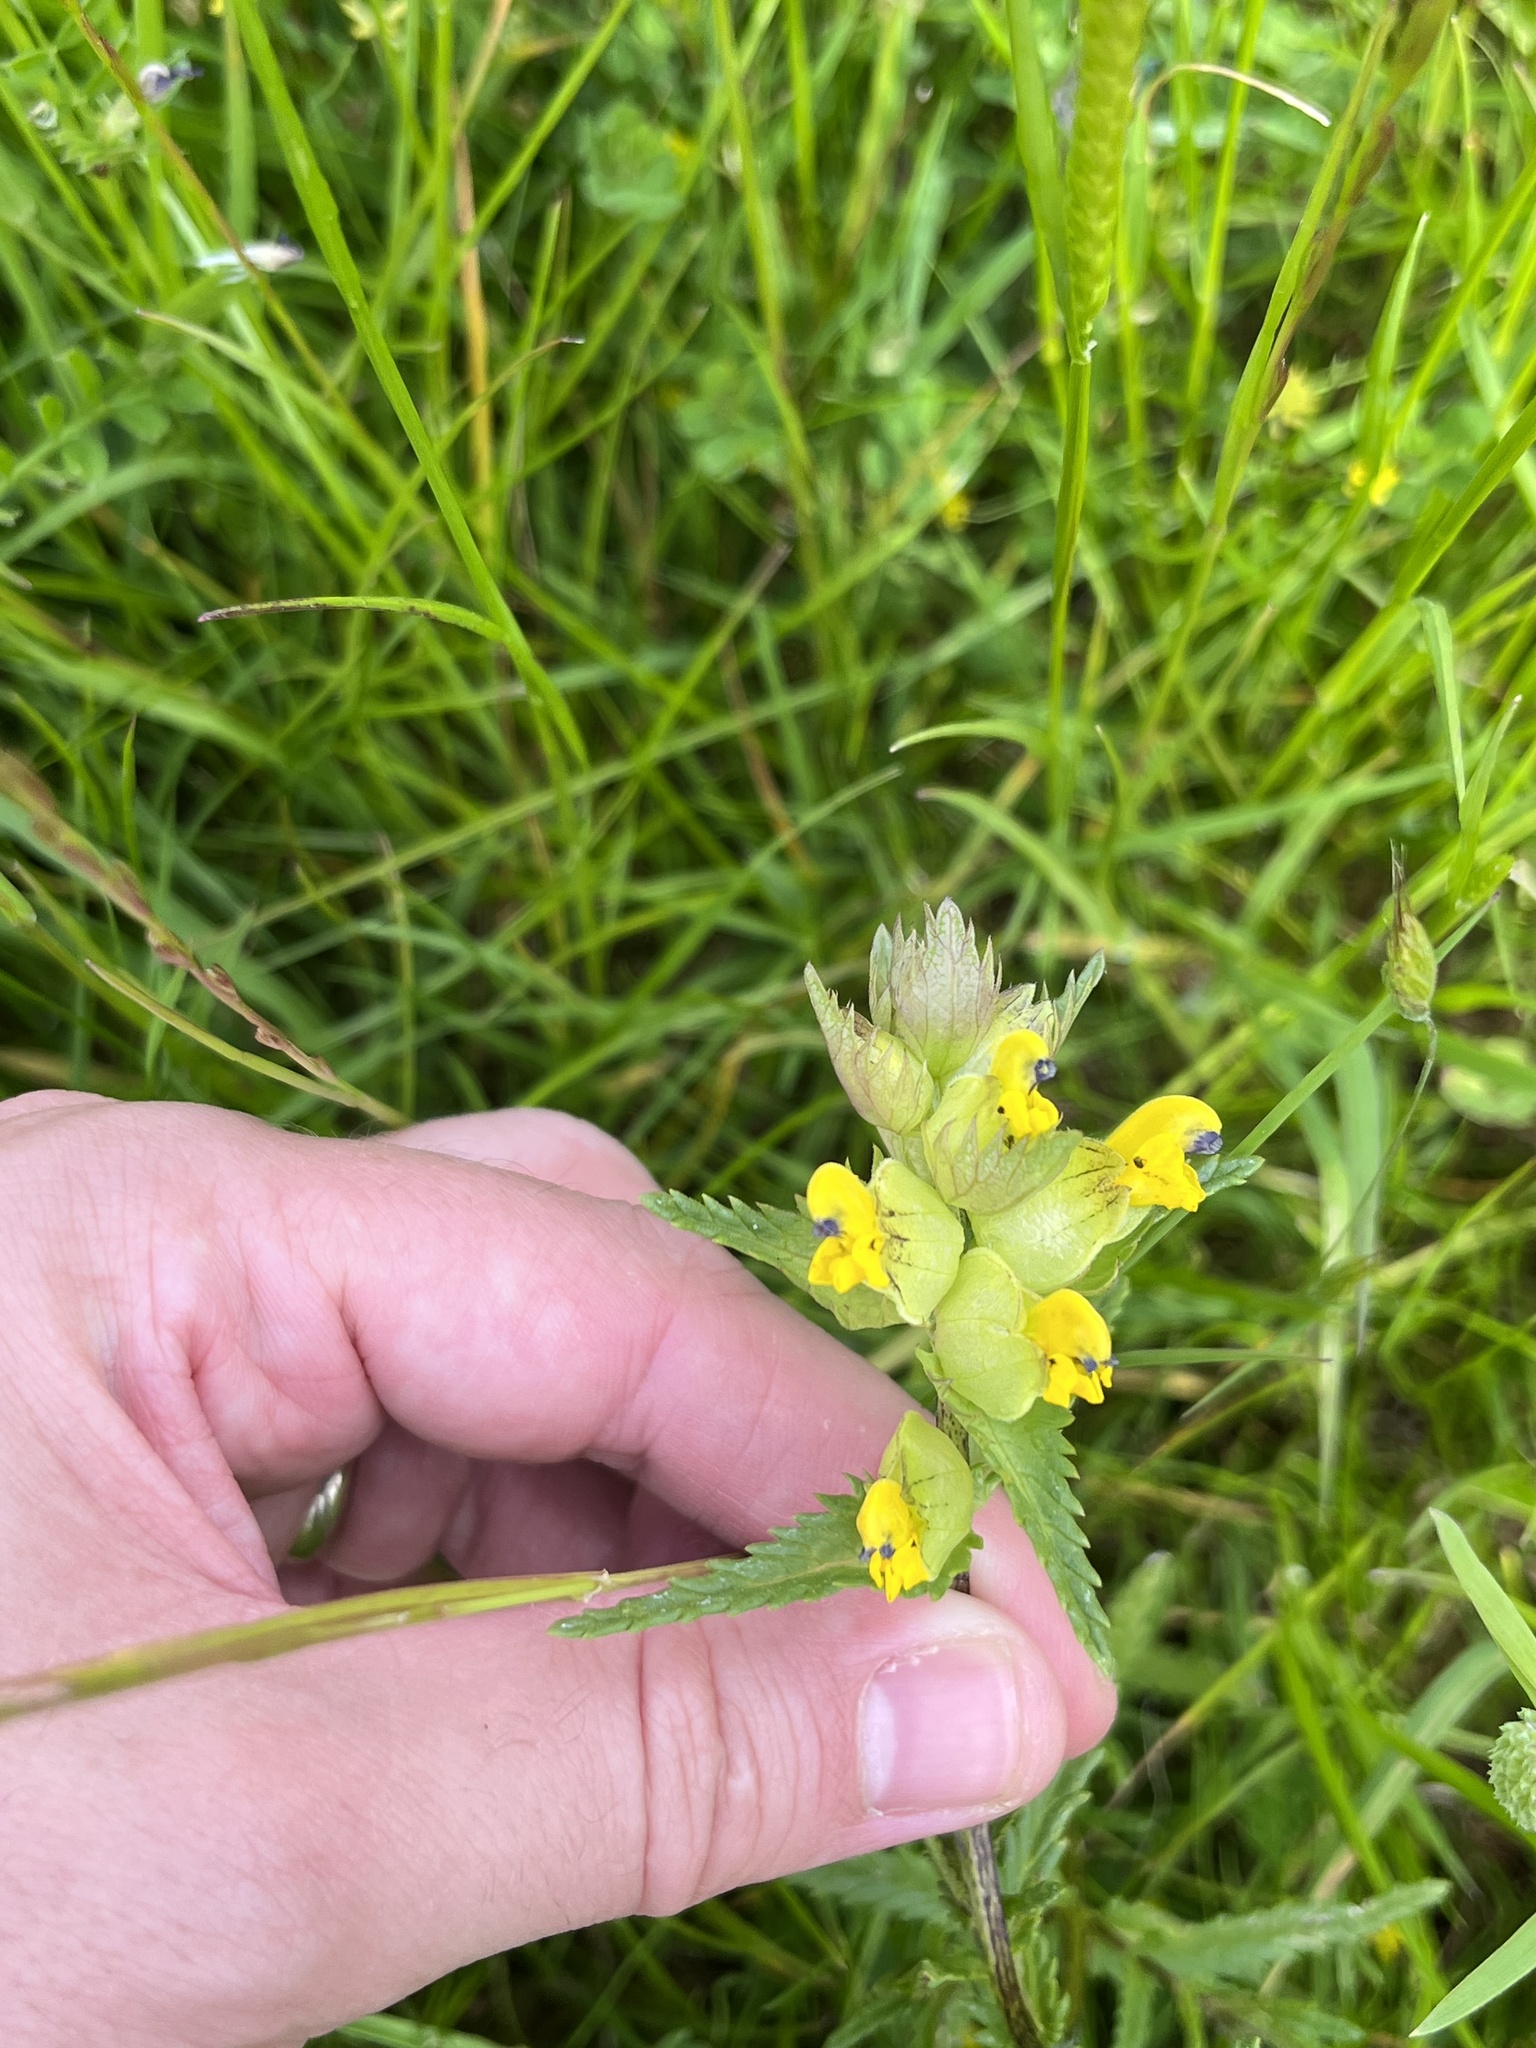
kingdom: Plantae
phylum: Tracheophyta
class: Magnoliopsida
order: Lamiales
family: Orobanchaceae
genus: Rhinanthus
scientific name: Rhinanthus minor
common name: Yellow-rattle
